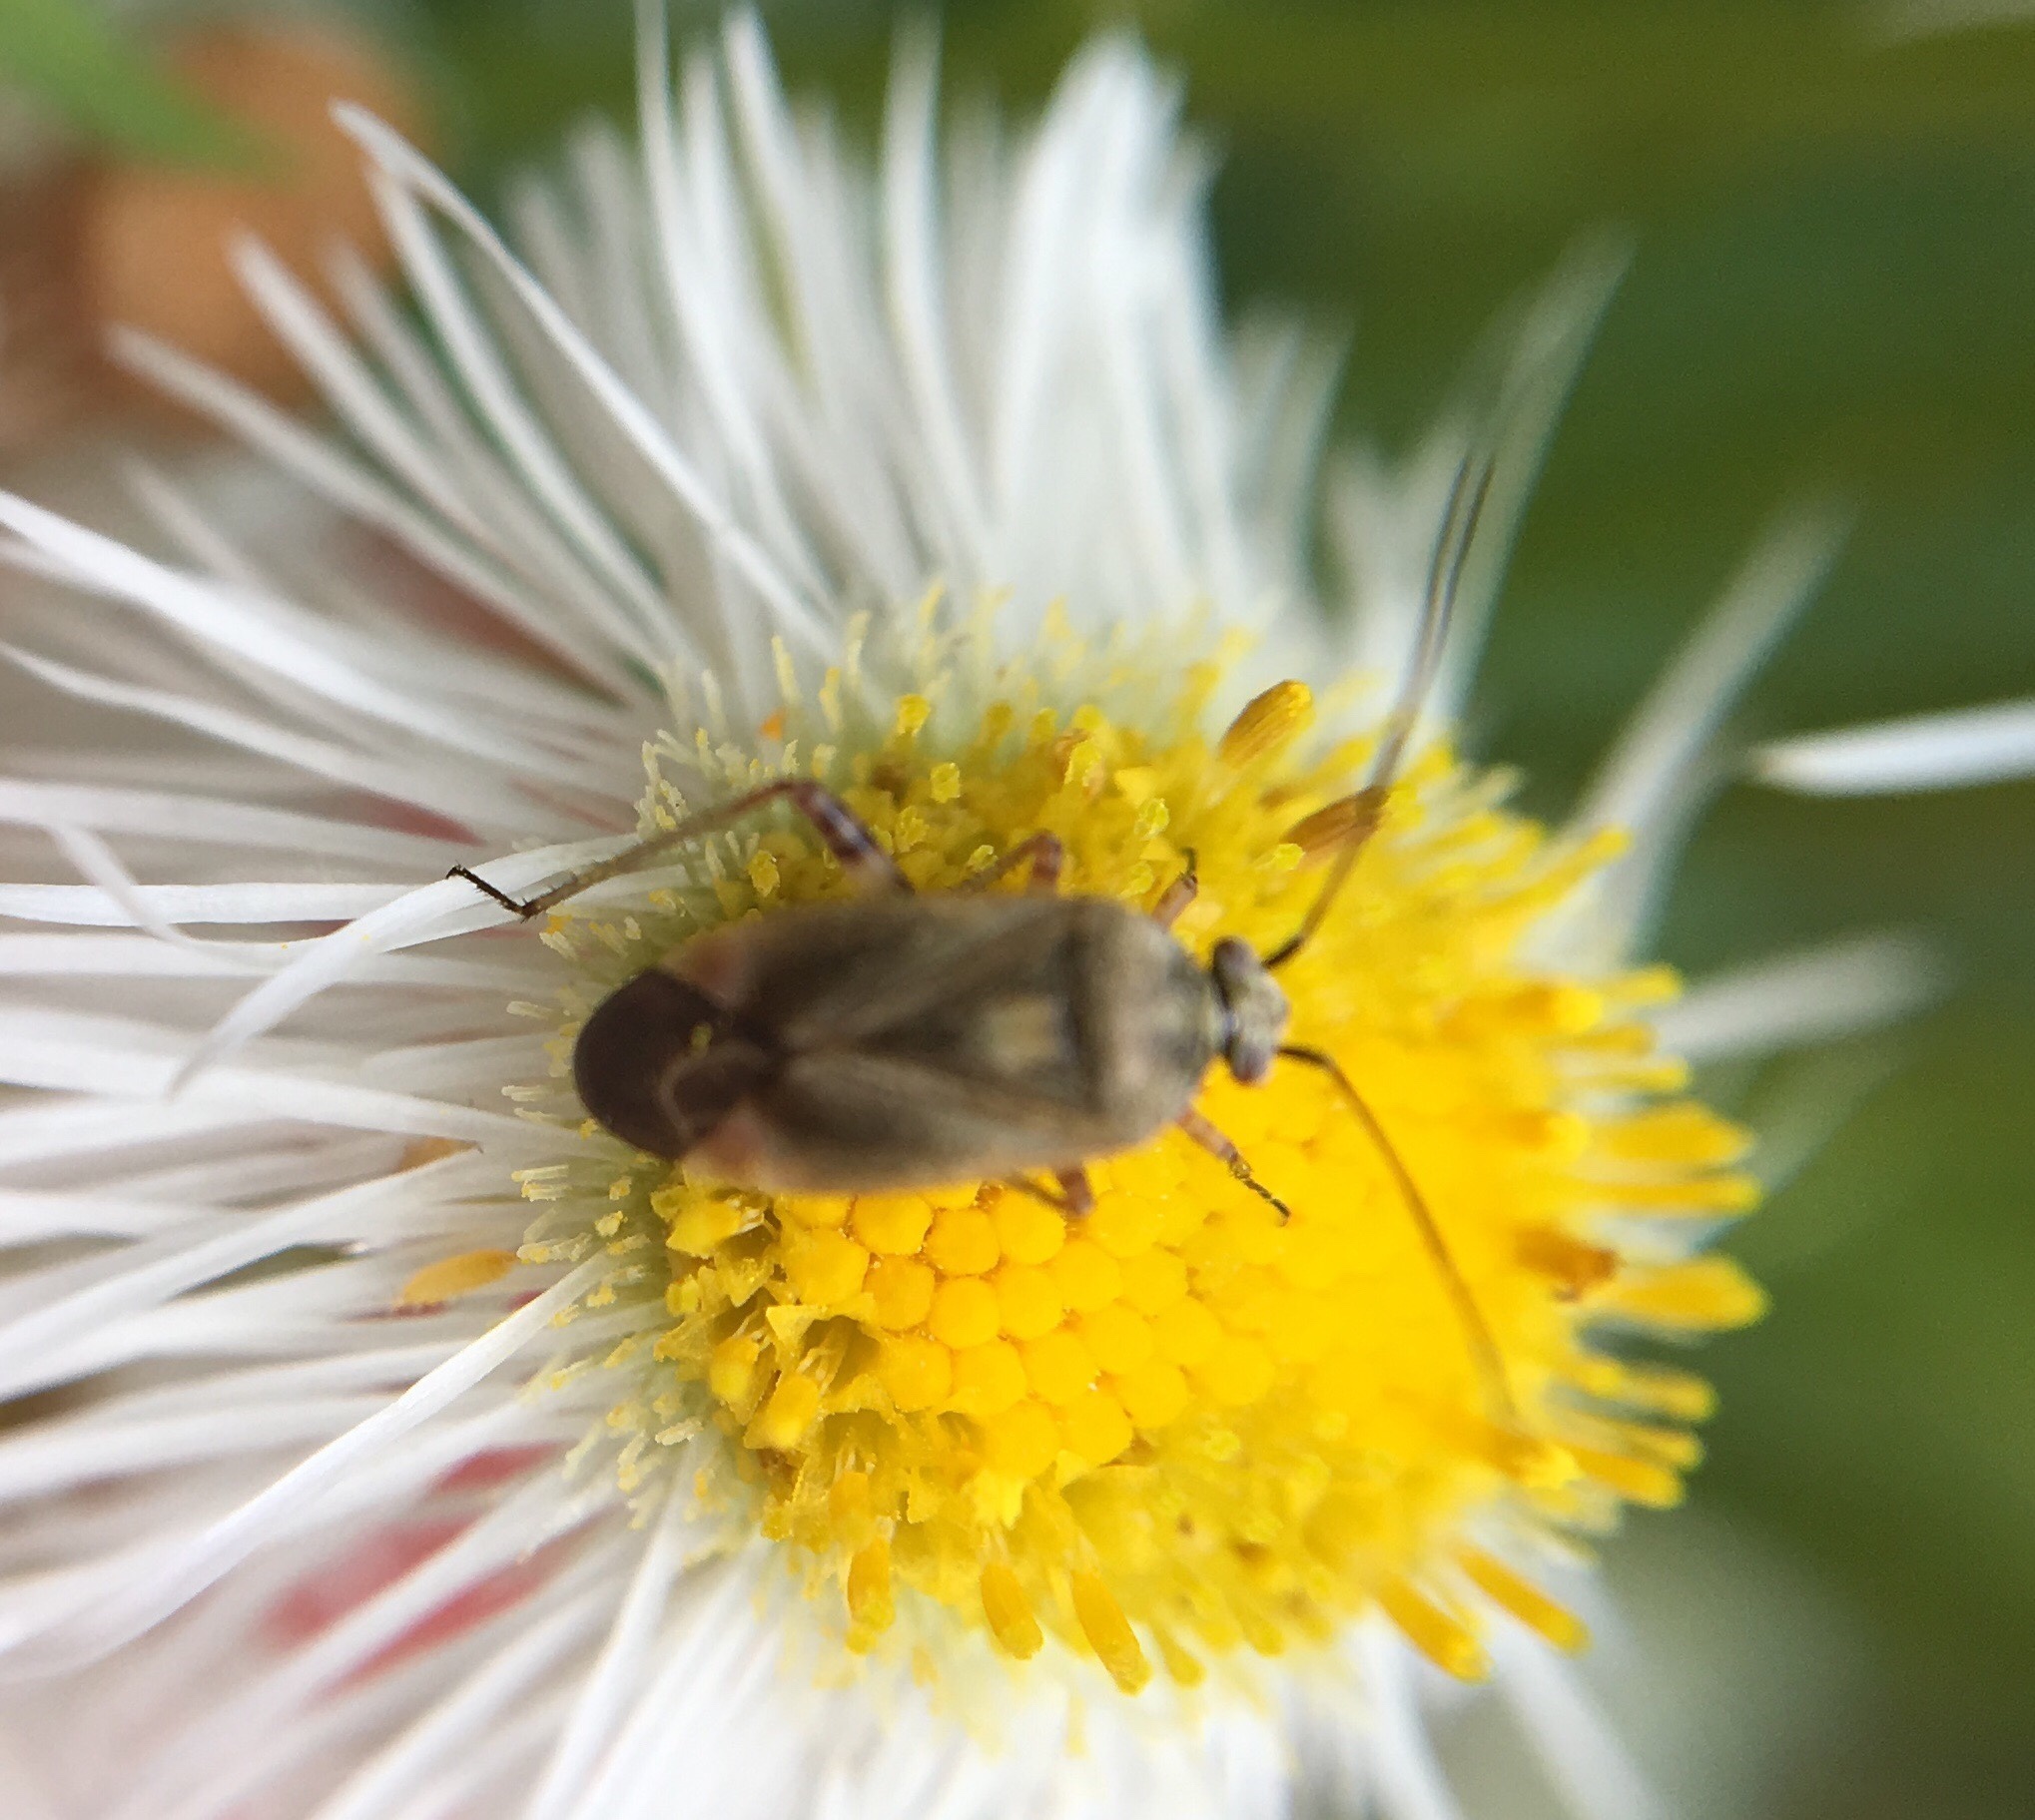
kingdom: Animalia
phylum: Arthropoda
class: Insecta
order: Hemiptera
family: Miridae
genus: Polymerus
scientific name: Polymerus basalis
